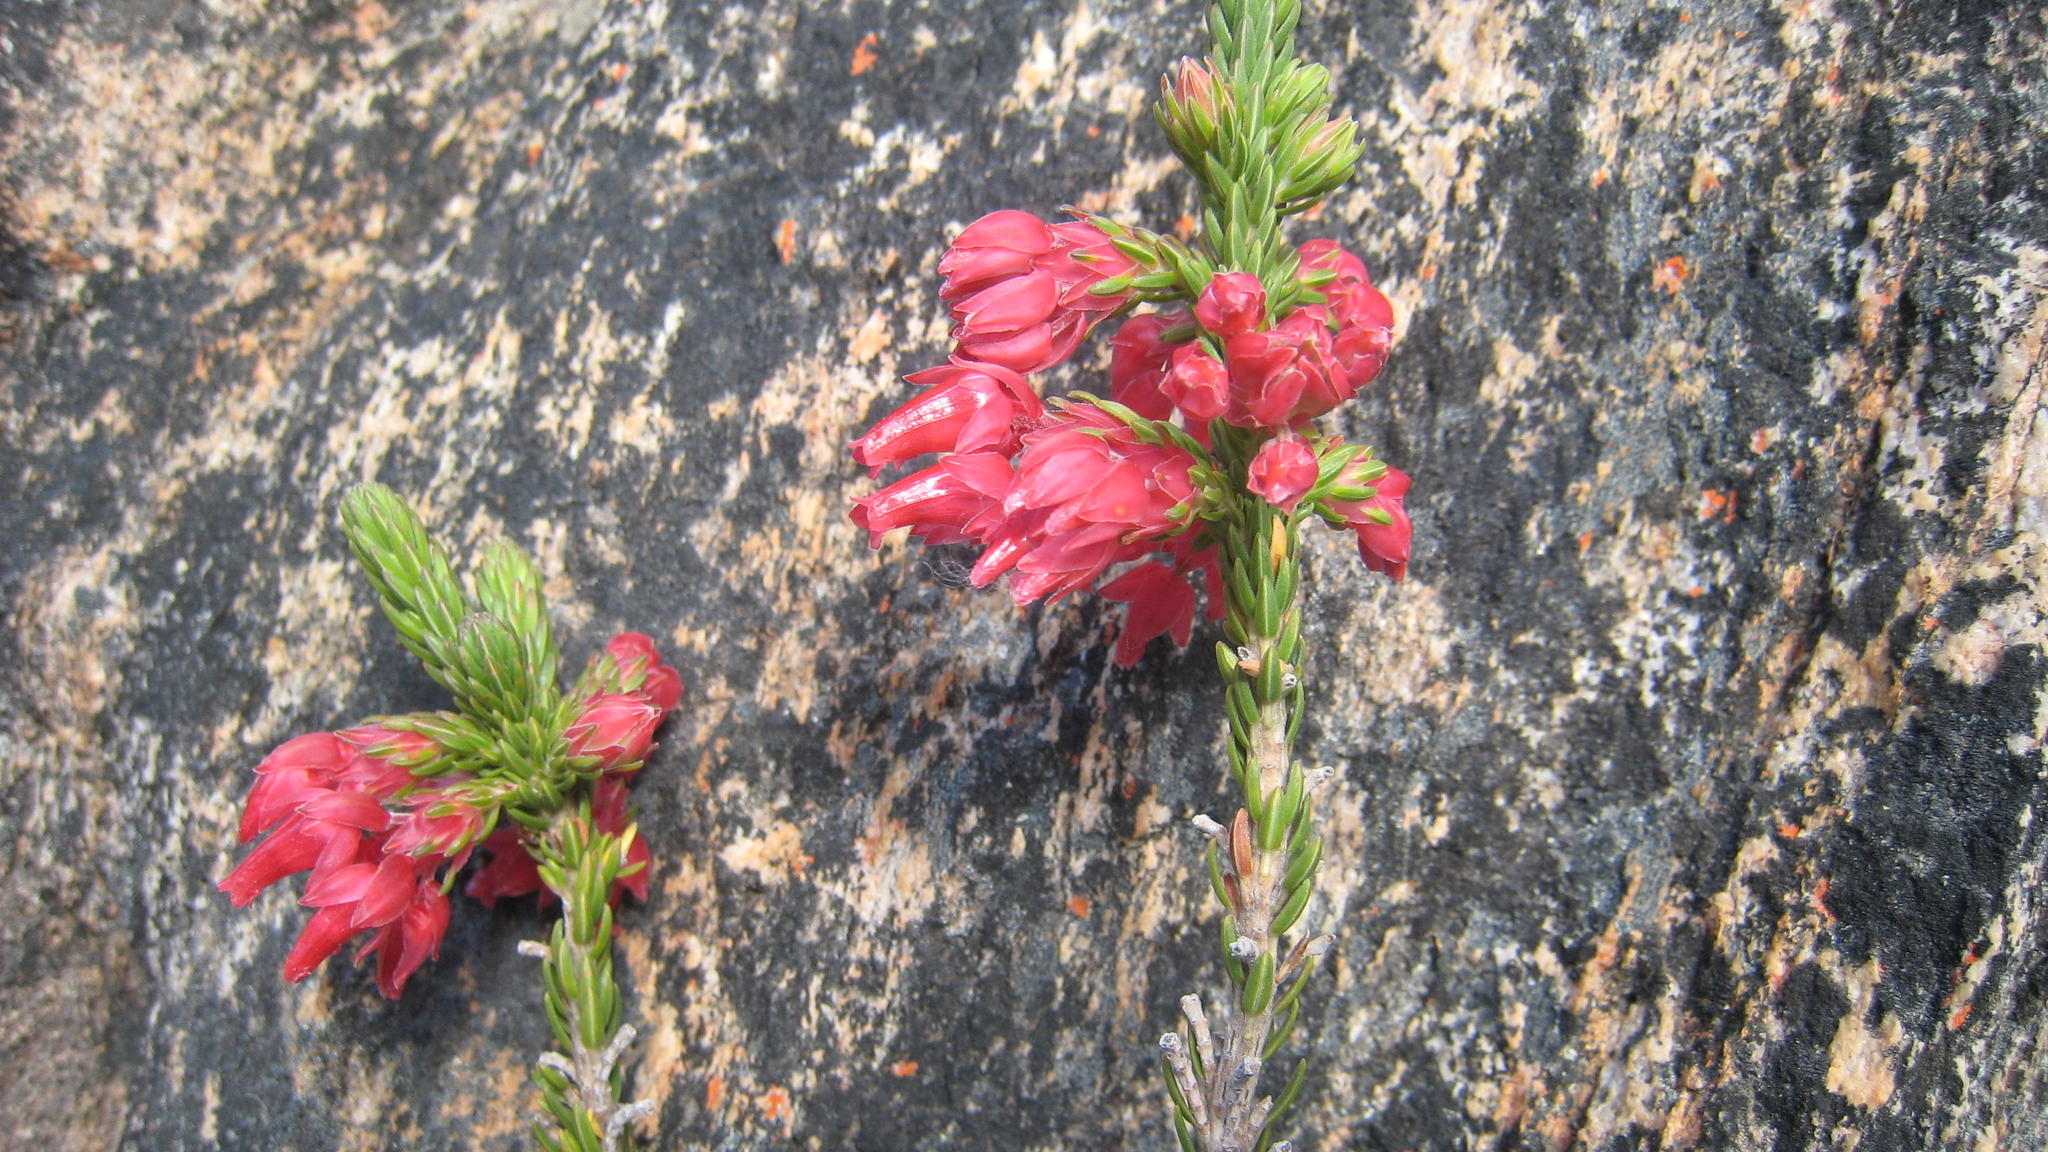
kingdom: Plantae
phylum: Tracheophyta
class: Magnoliopsida
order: Ericales
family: Ericaceae
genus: Erica
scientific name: Erica barrydalensis
